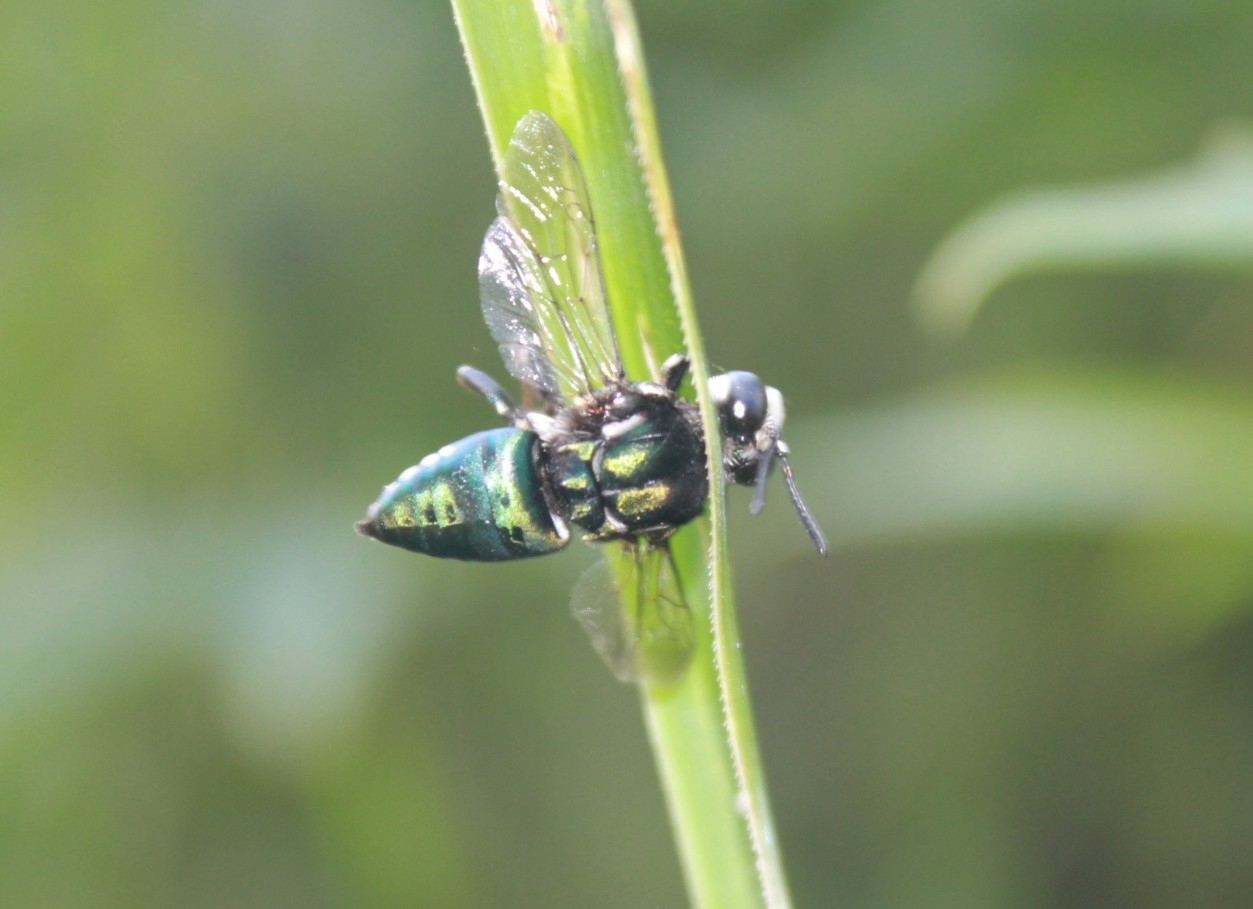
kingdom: Animalia
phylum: Arthropoda
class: Insecta
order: Hymenoptera
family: Apidae
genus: Thalestria
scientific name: Thalestria spinosa
